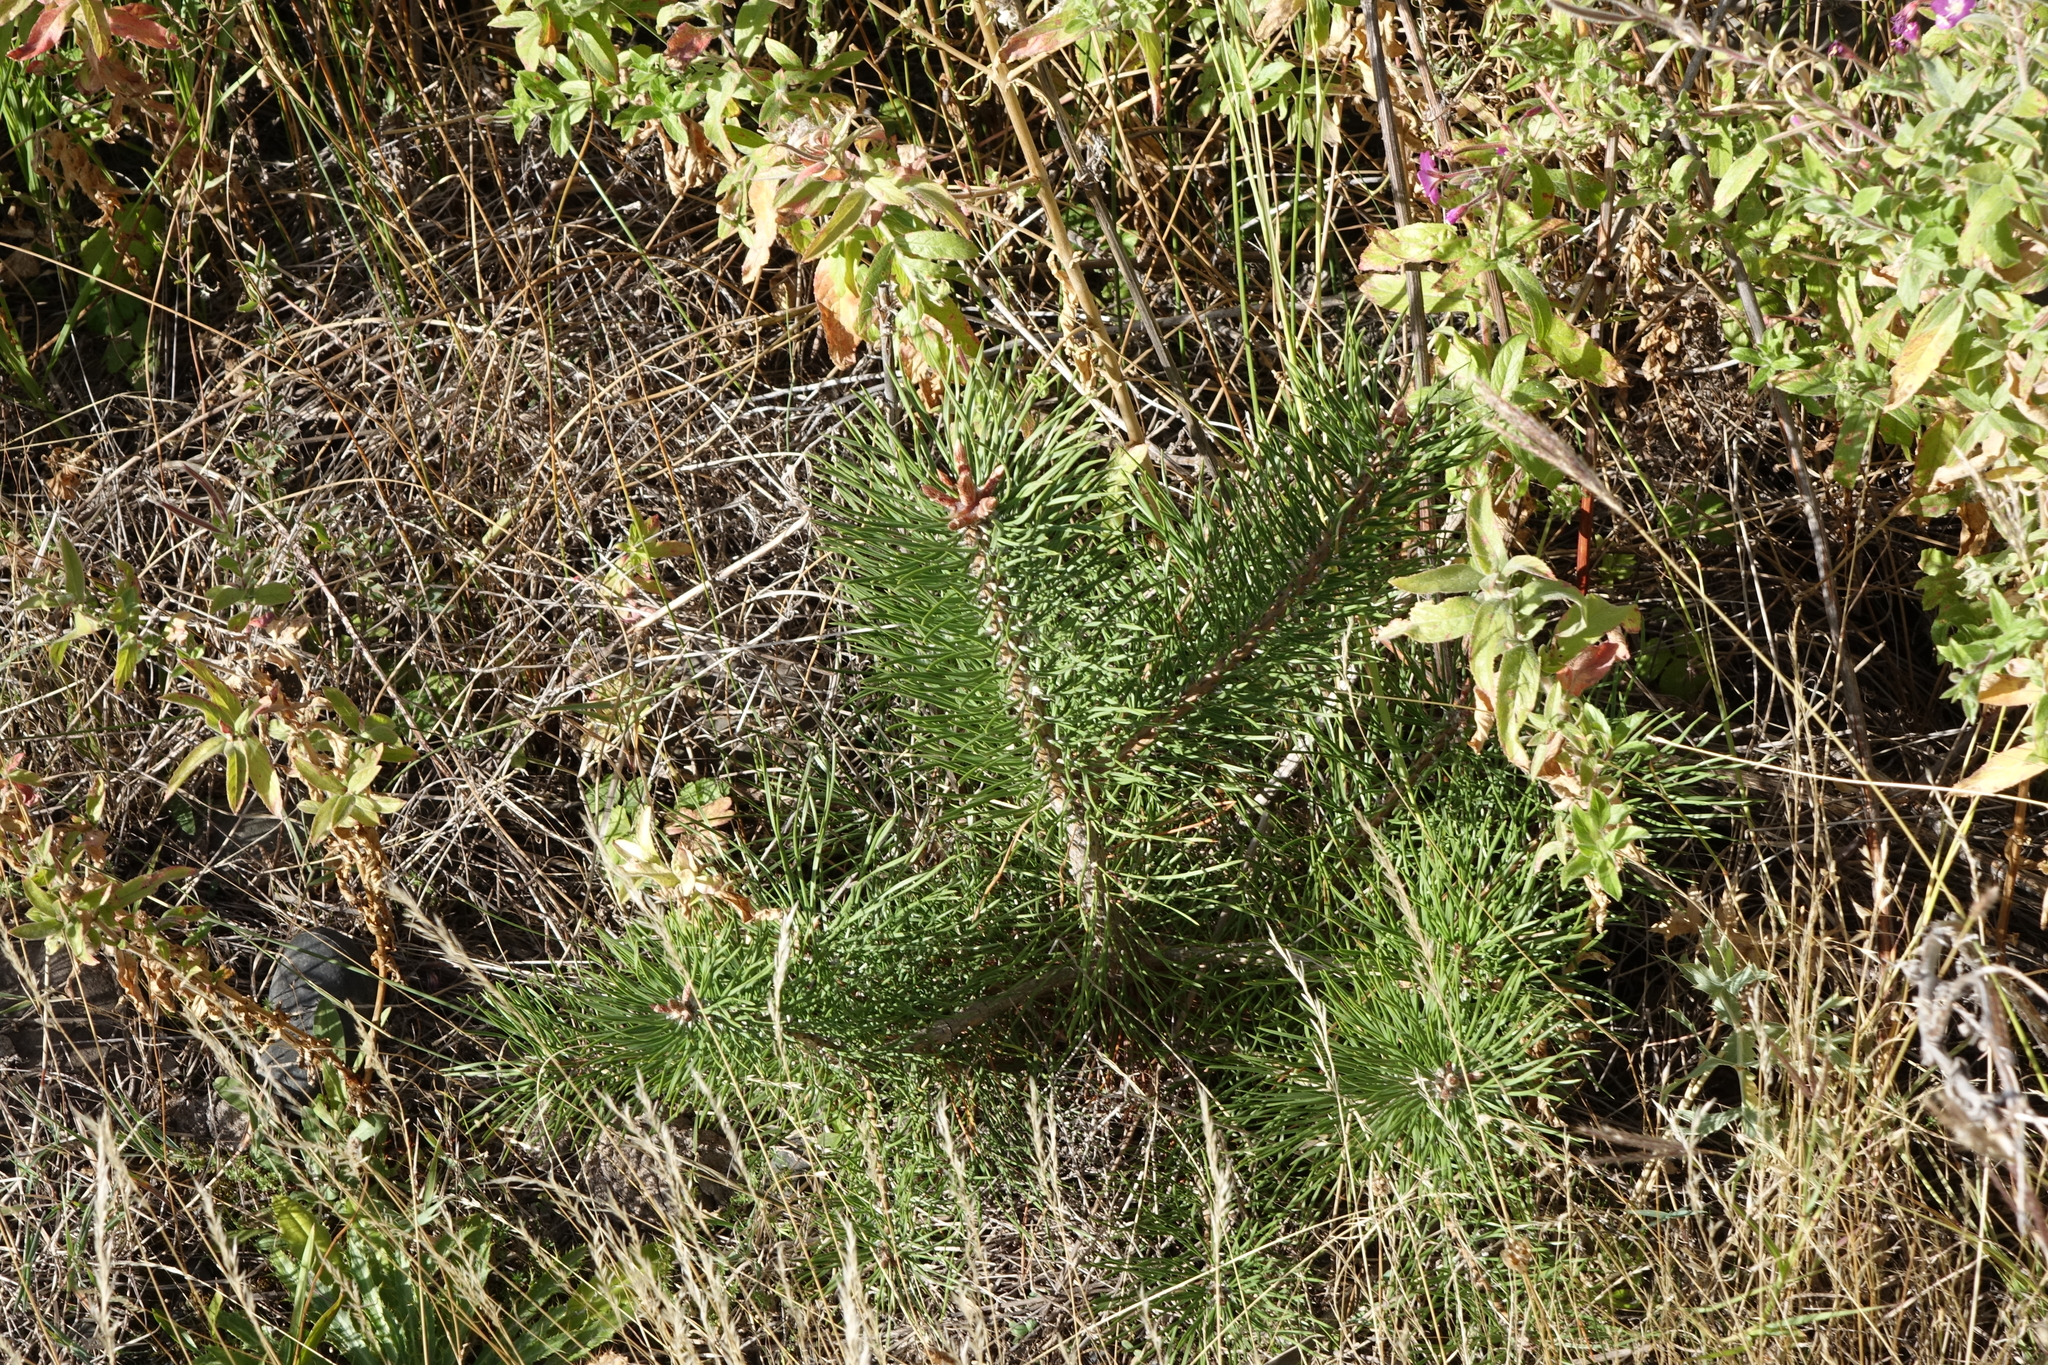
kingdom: Plantae
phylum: Tracheophyta
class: Pinopsida
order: Pinales
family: Pinaceae
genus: Pinus
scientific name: Pinus sylvestris
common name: Scots pine
